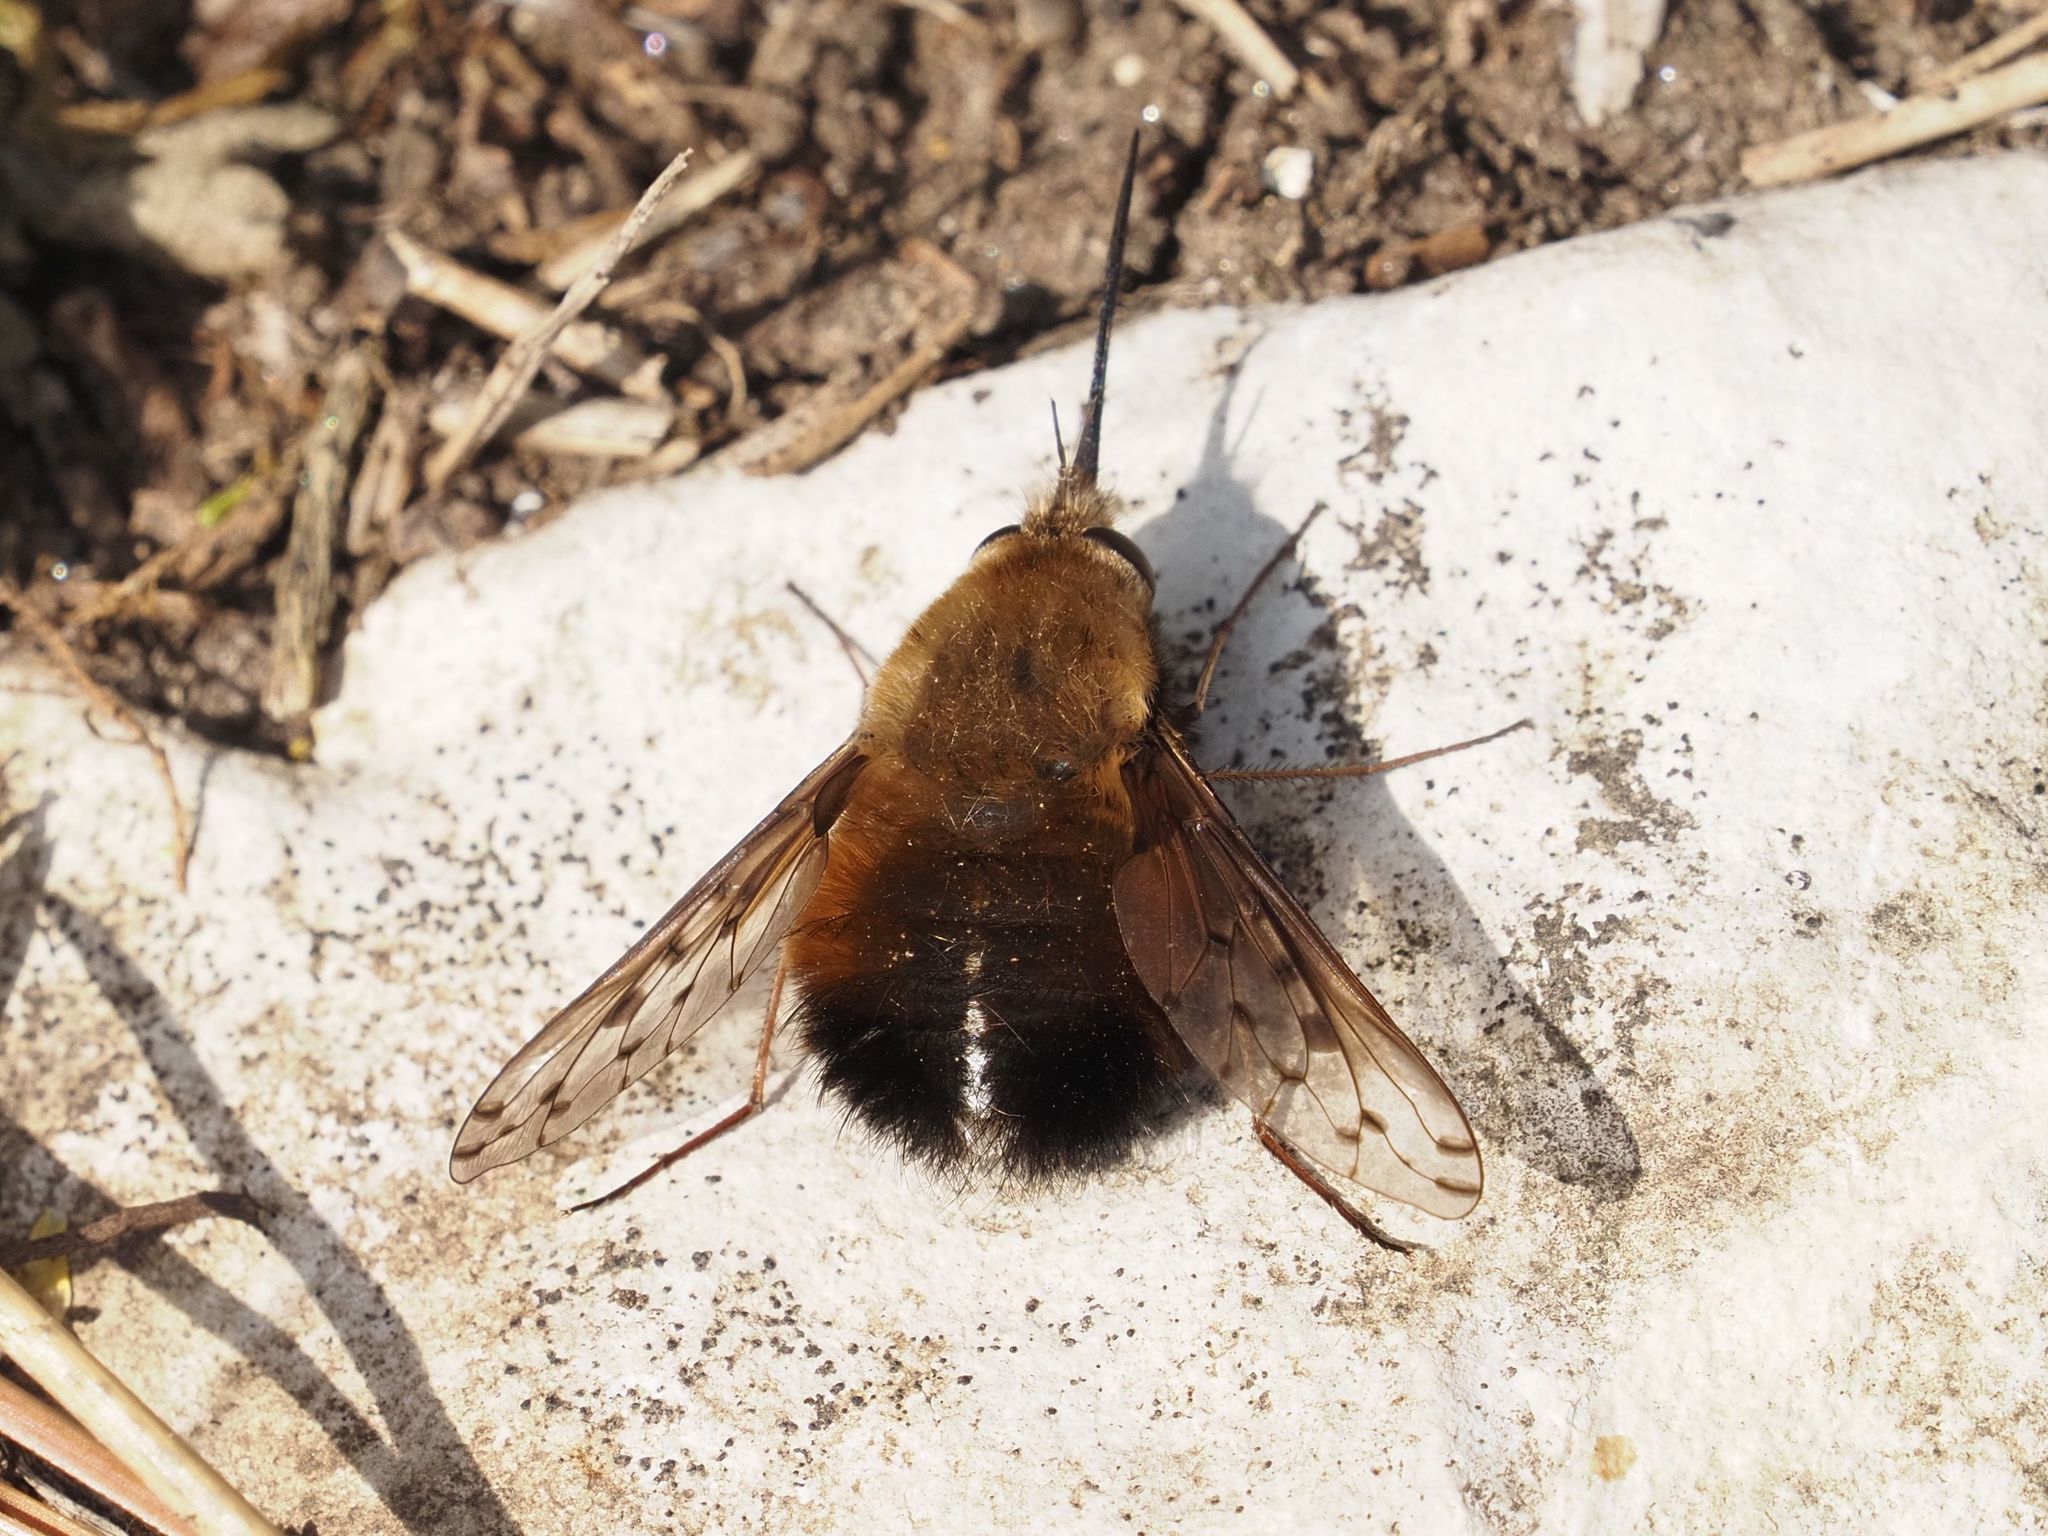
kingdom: Animalia
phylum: Arthropoda
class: Insecta
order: Diptera
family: Bombyliidae
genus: Bombylius
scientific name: Bombylius discolor
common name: Dotted bee-fly
